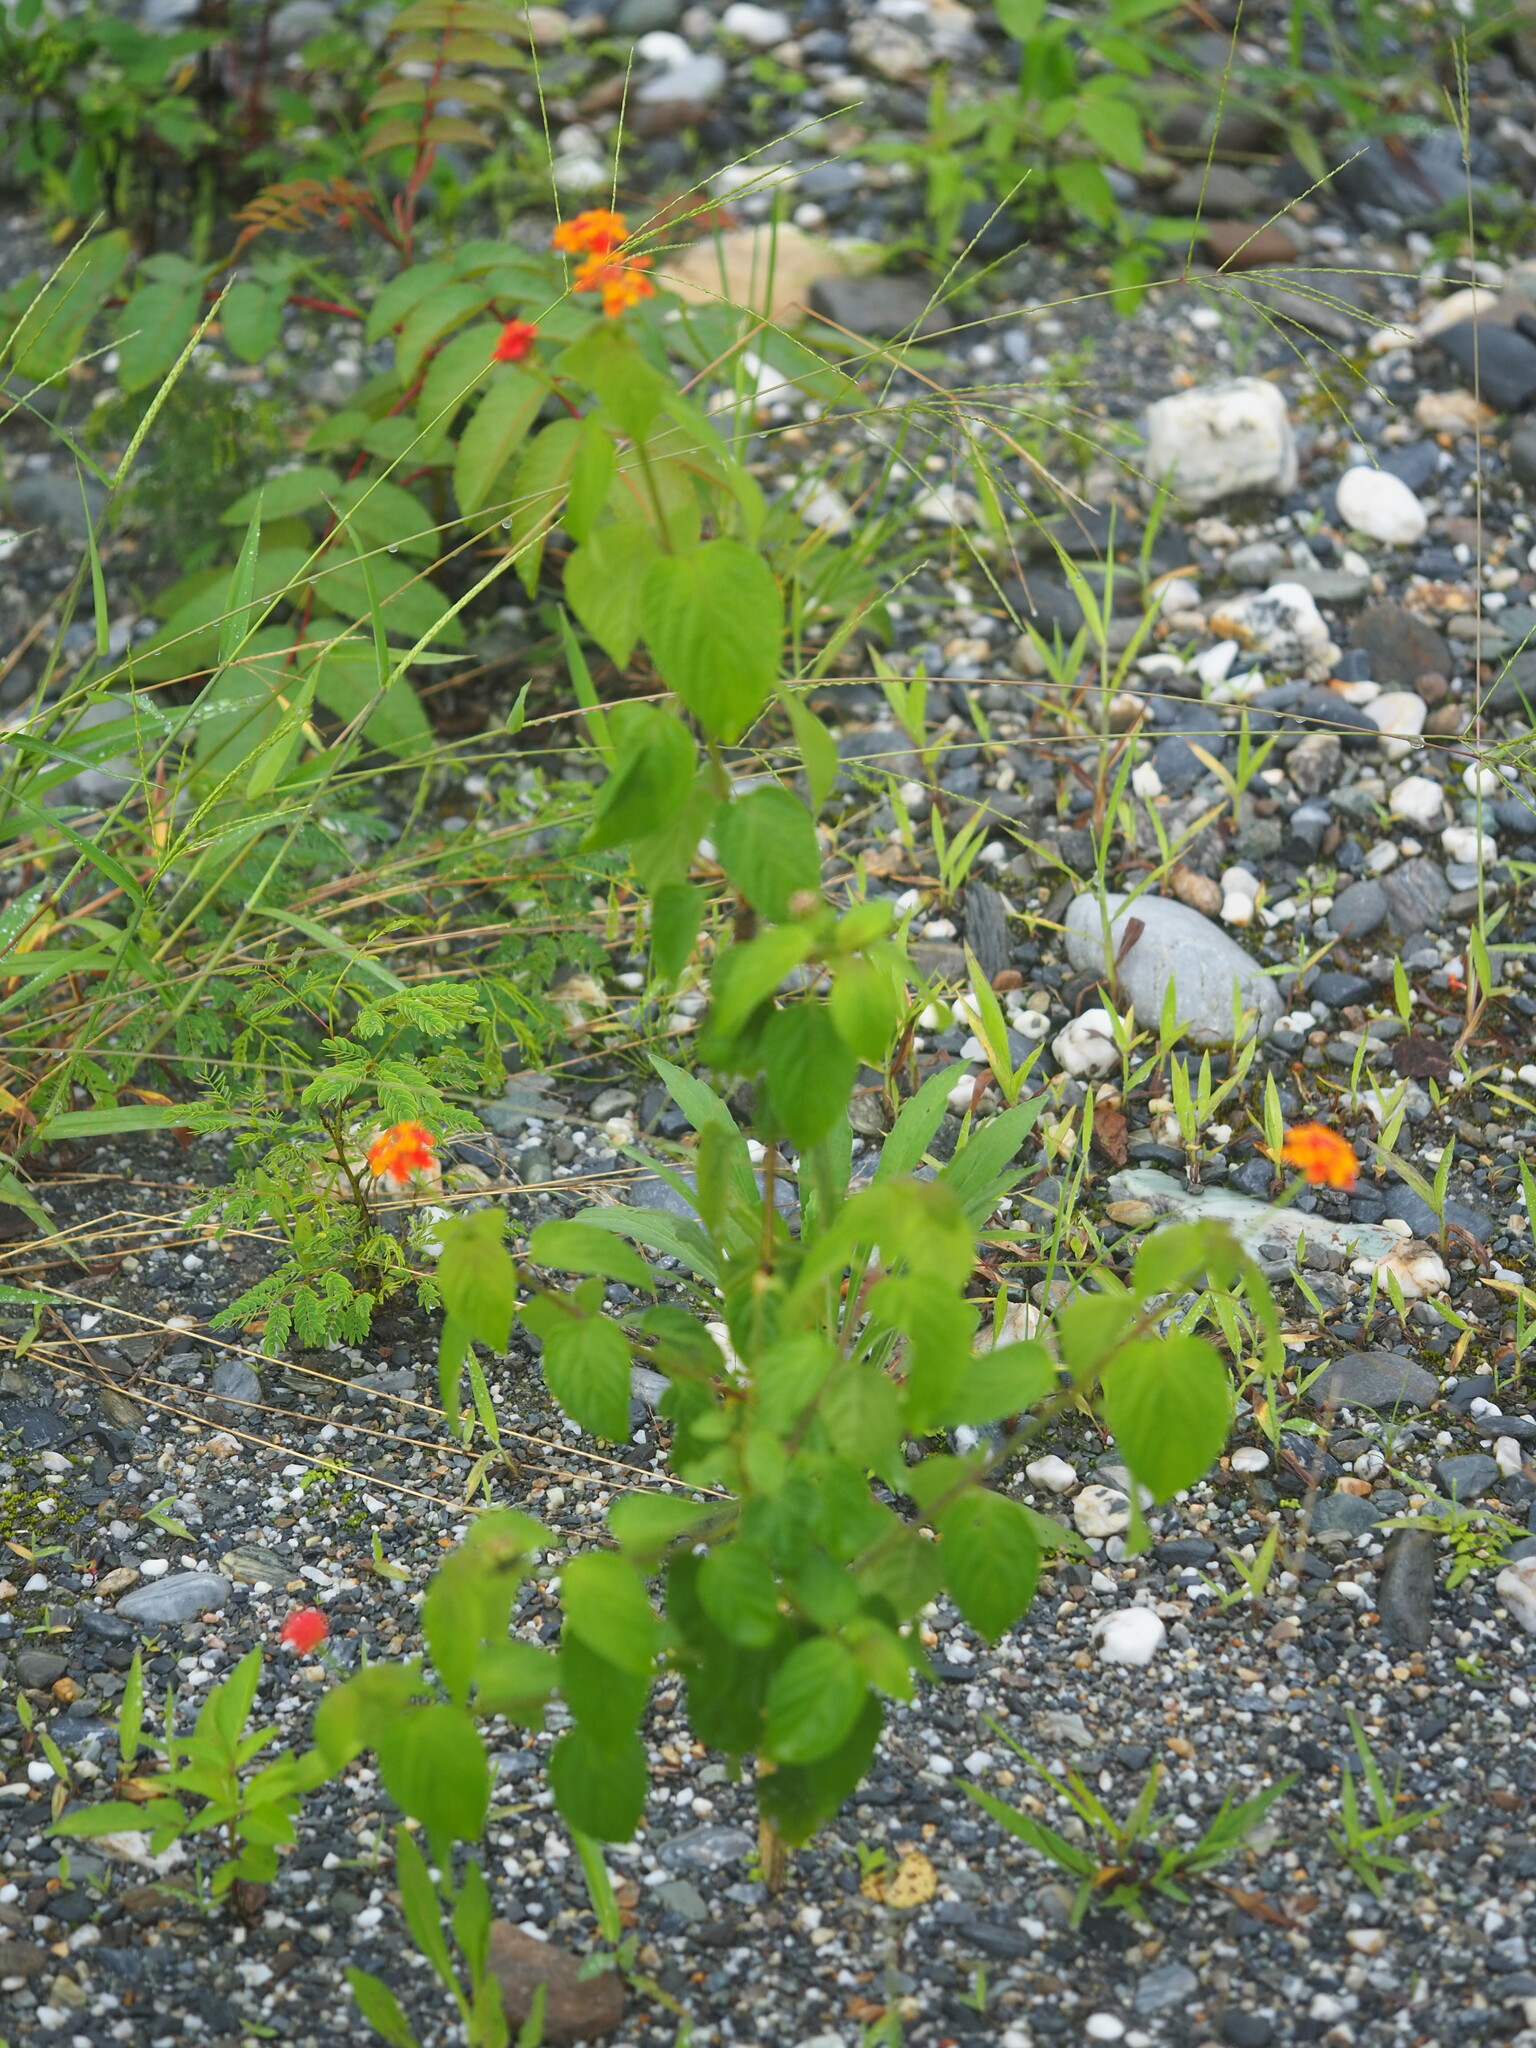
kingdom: Plantae
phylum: Tracheophyta
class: Magnoliopsida
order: Lamiales
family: Verbenaceae
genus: Lantana
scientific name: Lantana camara
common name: Lantana
